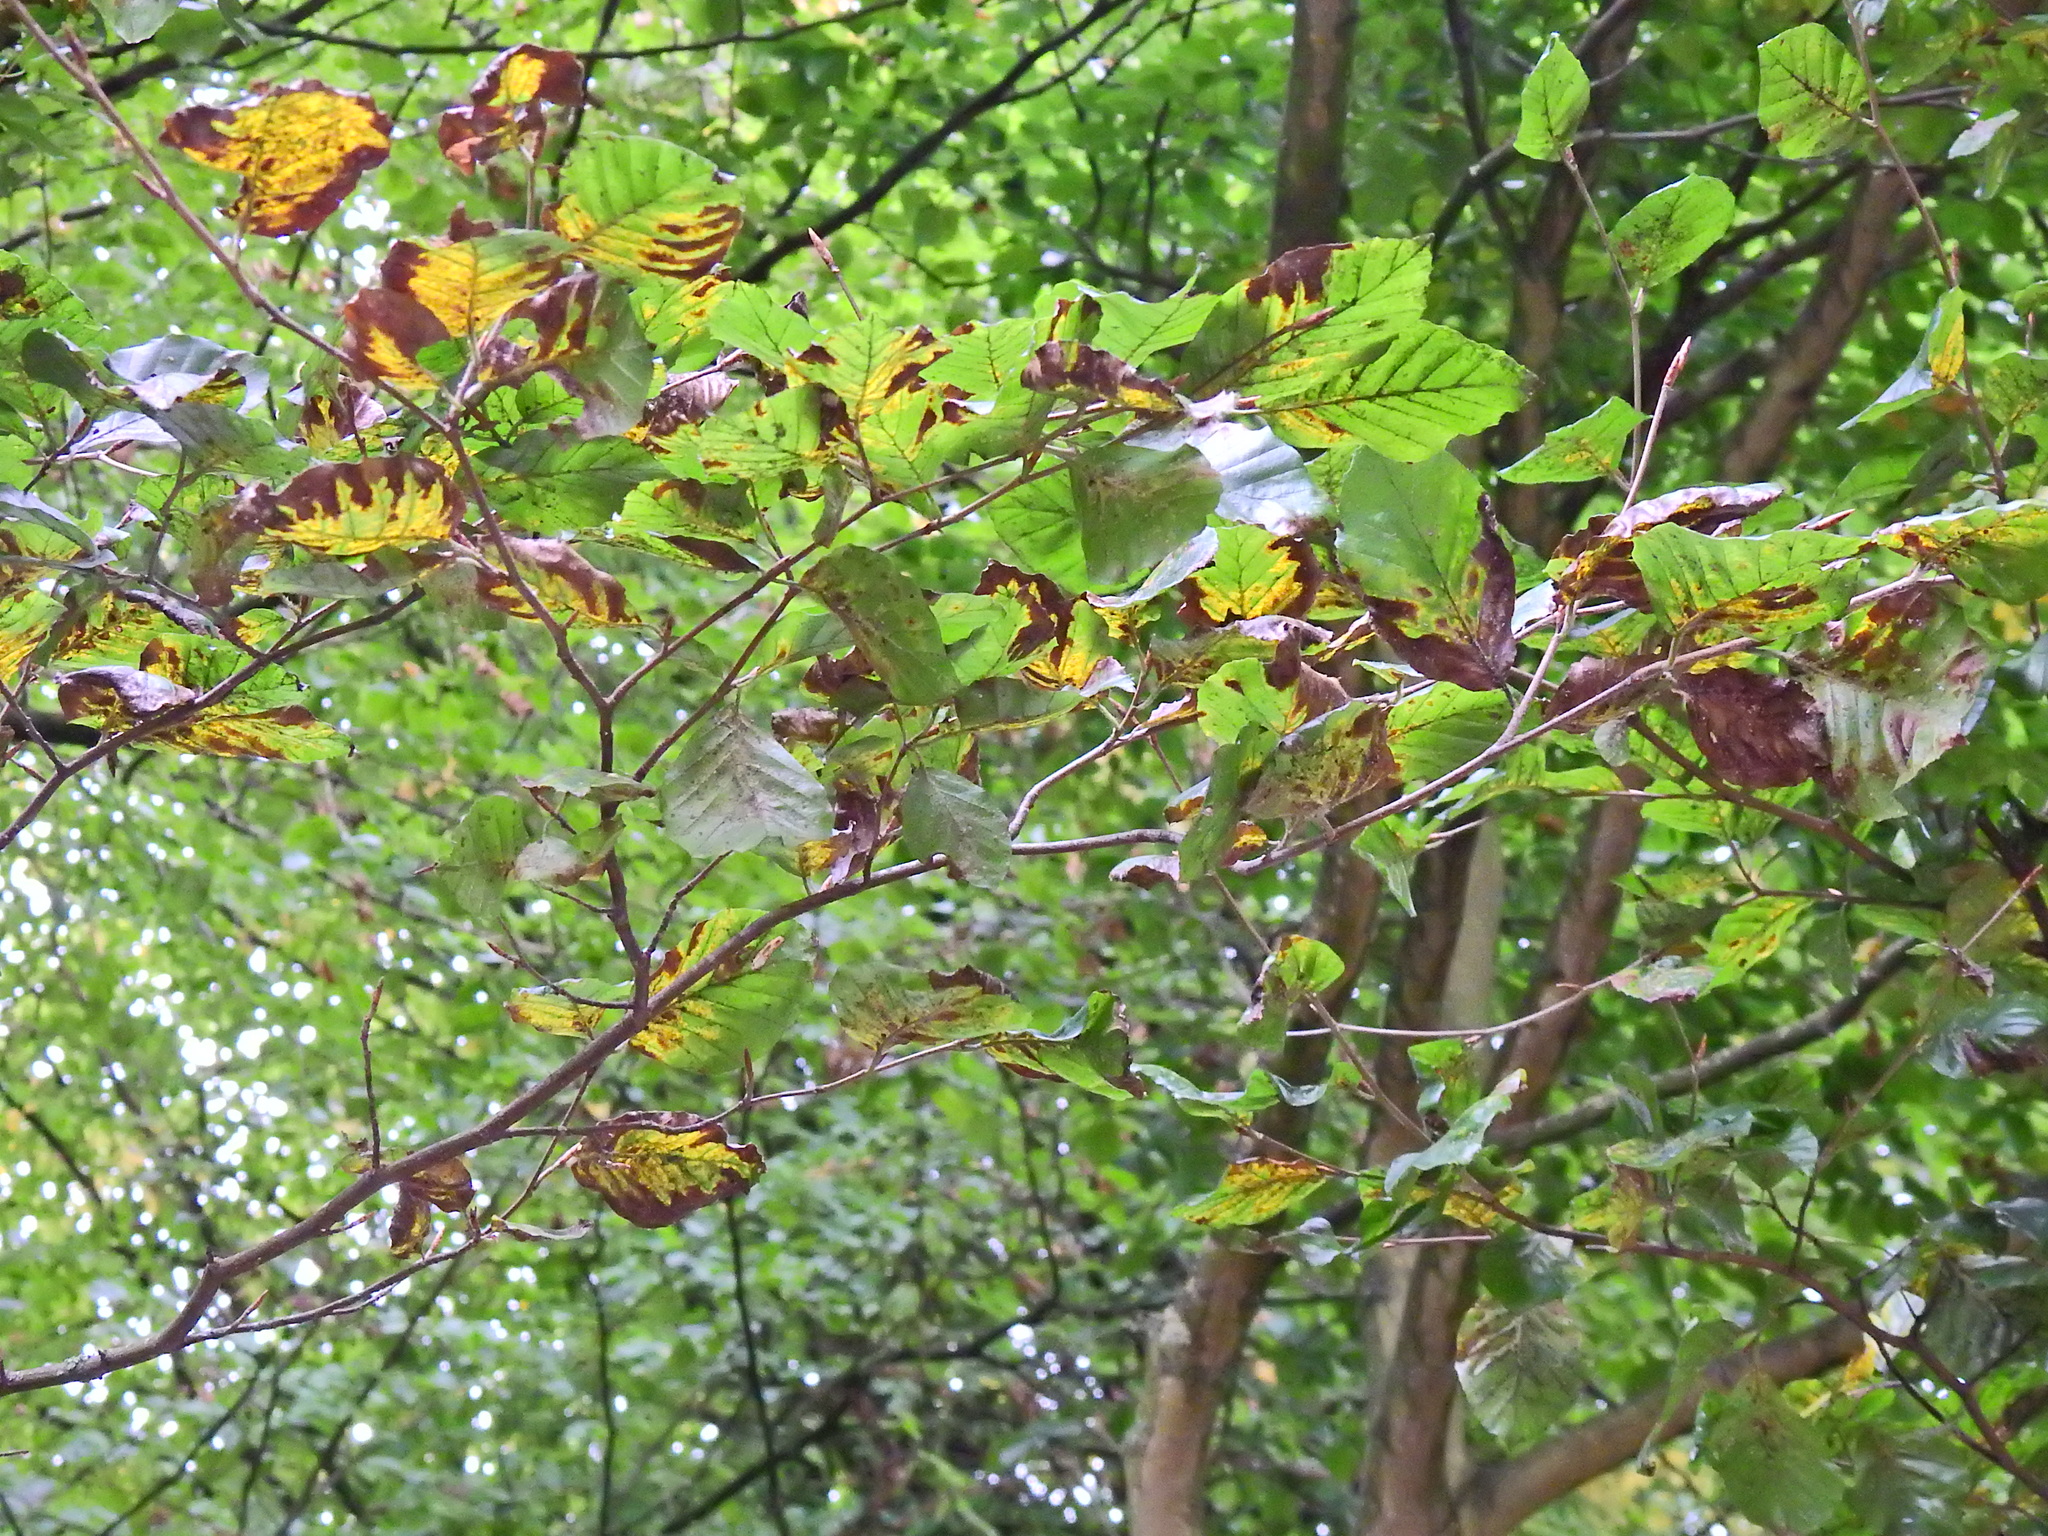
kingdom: Plantae
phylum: Tracheophyta
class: Magnoliopsida
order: Fagales
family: Fagaceae
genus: Fagus
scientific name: Fagus sylvatica
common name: Beech
